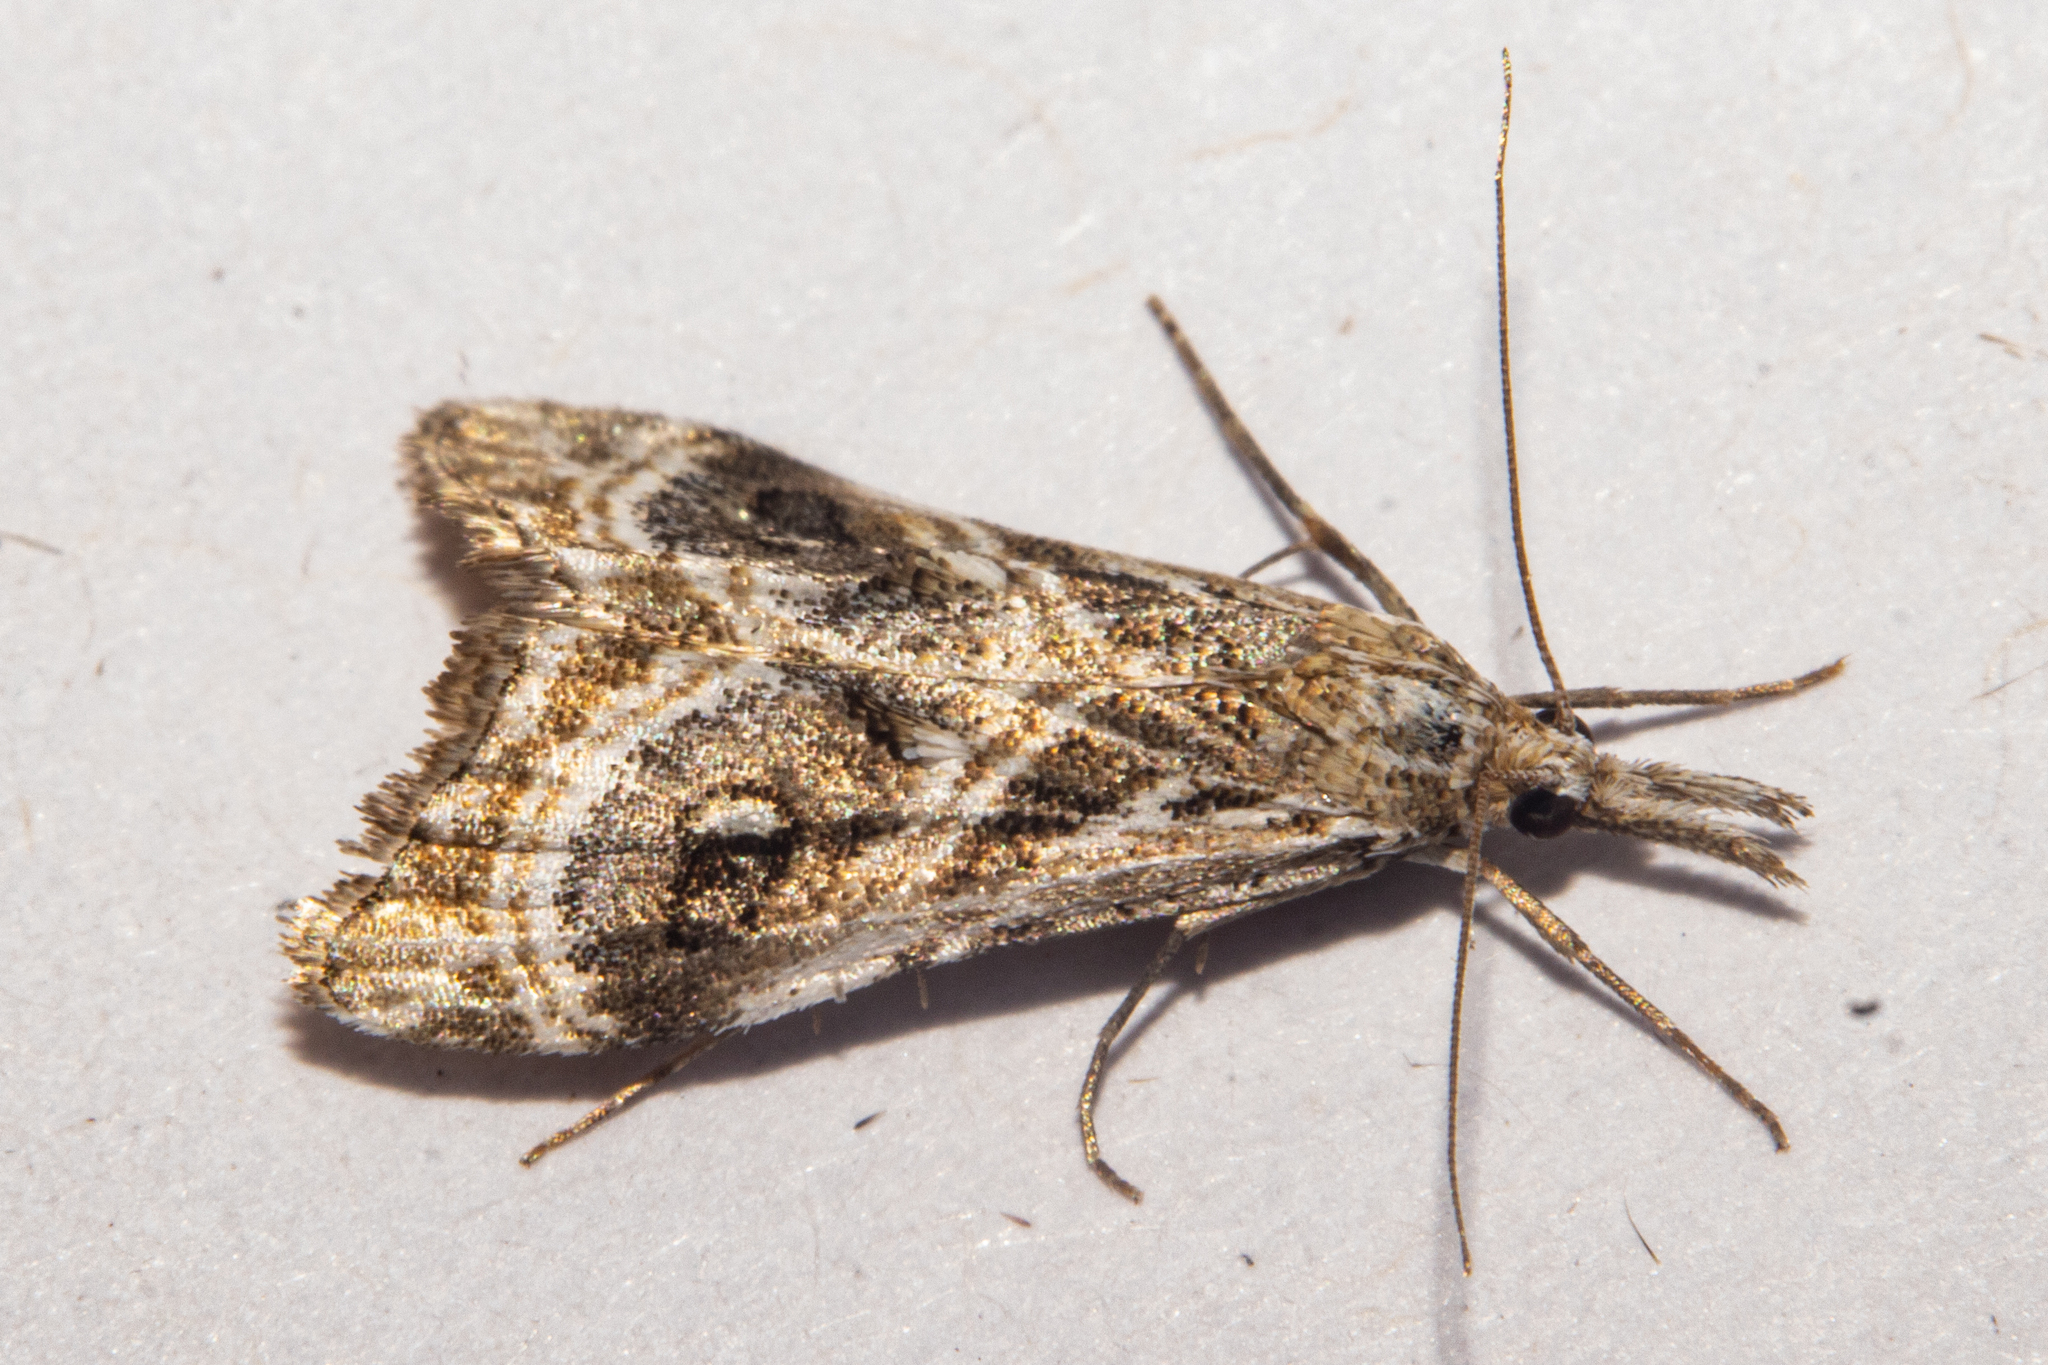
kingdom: Animalia
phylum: Arthropoda
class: Insecta
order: Lepidoptera
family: Crambidae
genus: Gadira
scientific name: Gadira acerella
